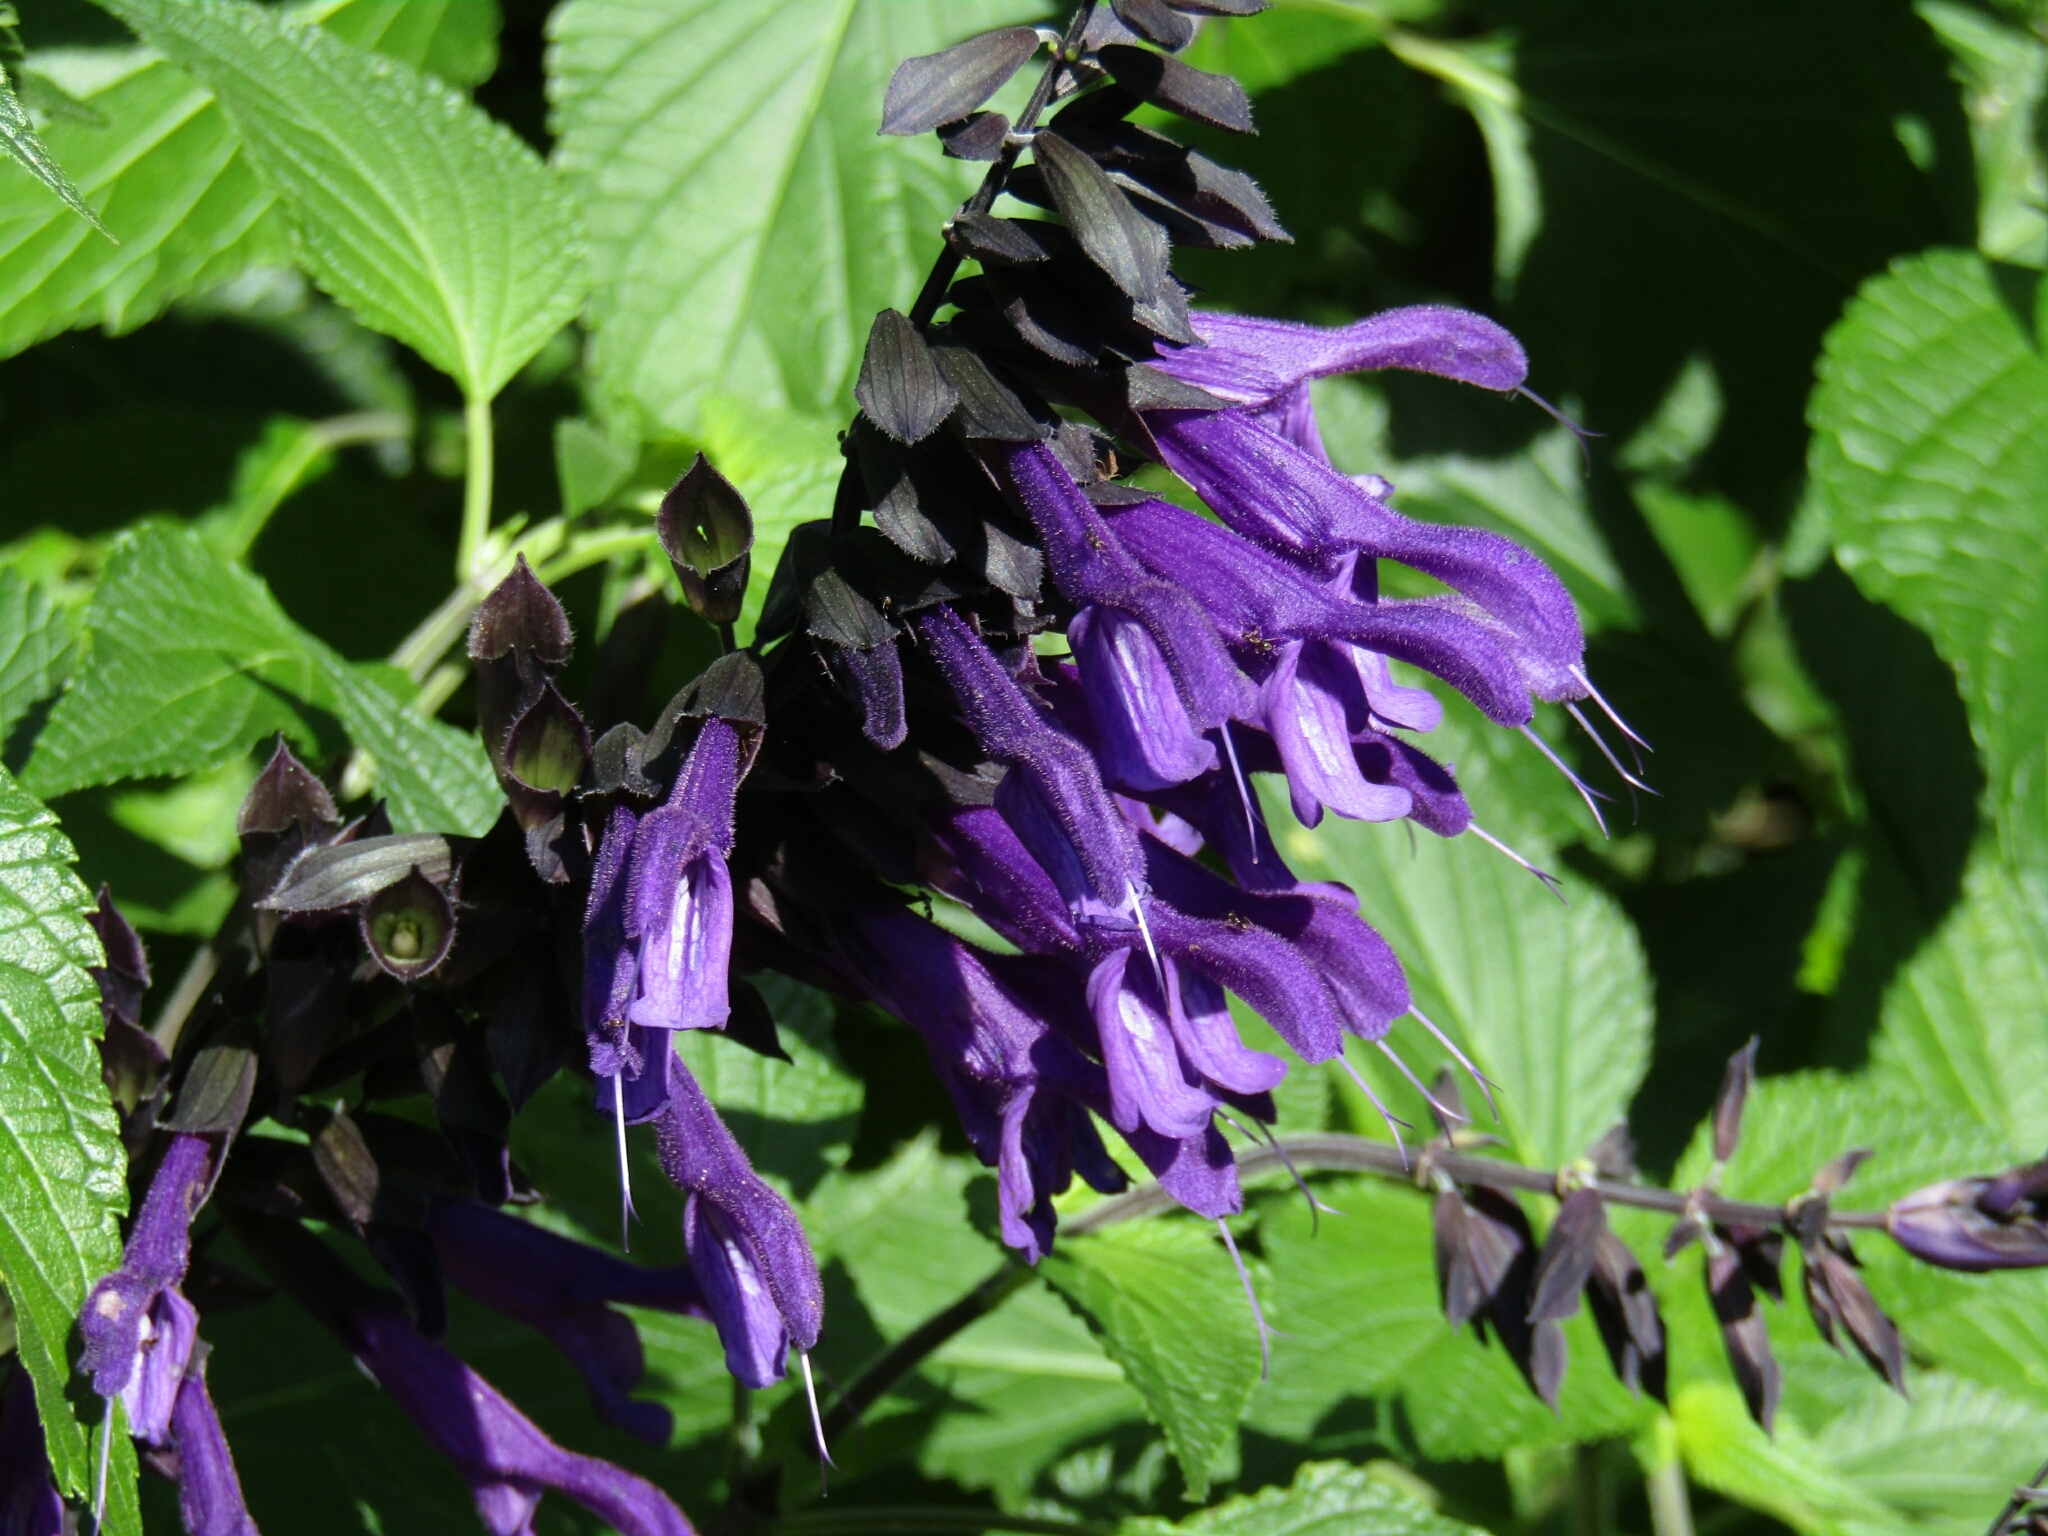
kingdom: Plantae
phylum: Tracheophyta
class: Magnoliopsida
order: Lamiales
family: Lamiaceae
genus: Salvia
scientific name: Salvia guaranitica
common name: Anise-scented sage
